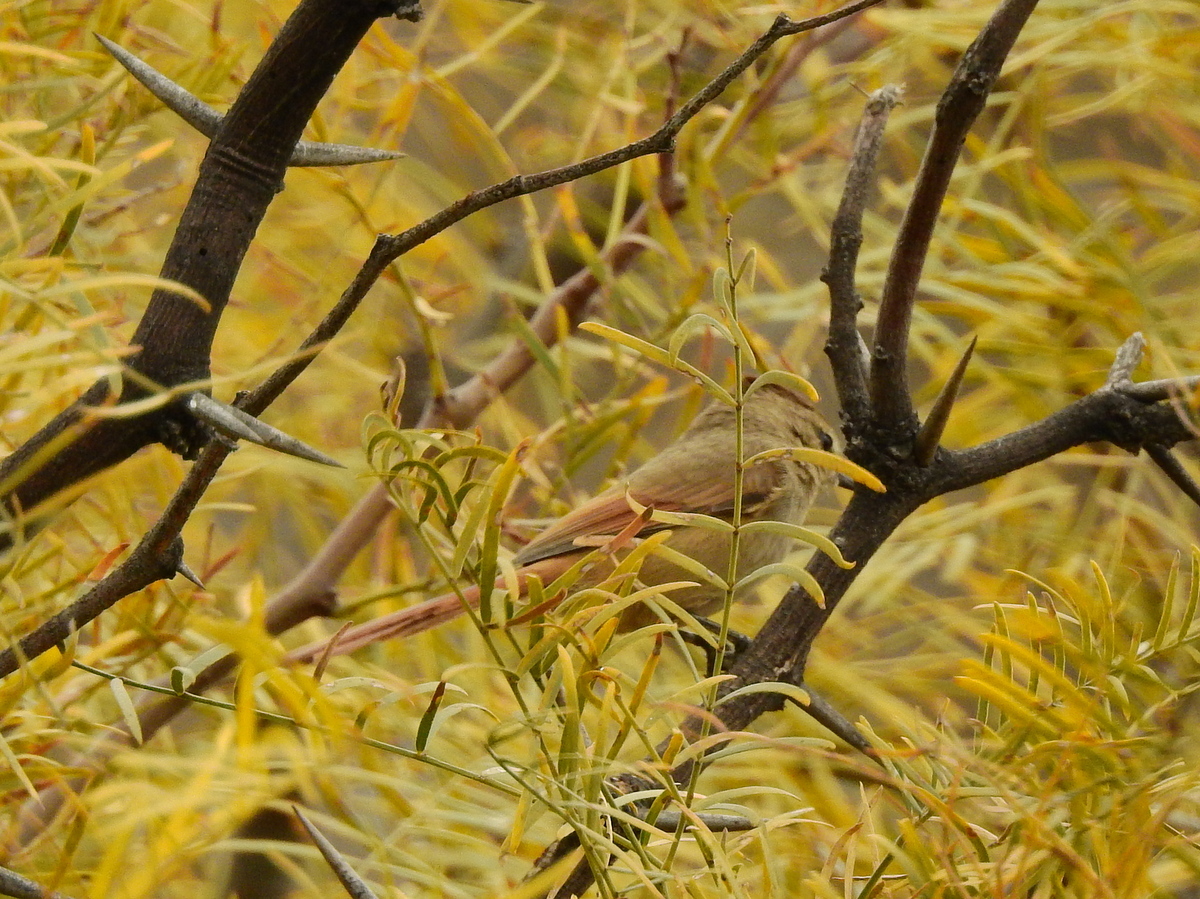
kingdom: Animalia
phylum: Chordata
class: Aves
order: Passeriformes
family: Furnariidae
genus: Leptasthenura
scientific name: Leptasthenura fuliginiceps
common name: Brown-capped tit-spinetail
